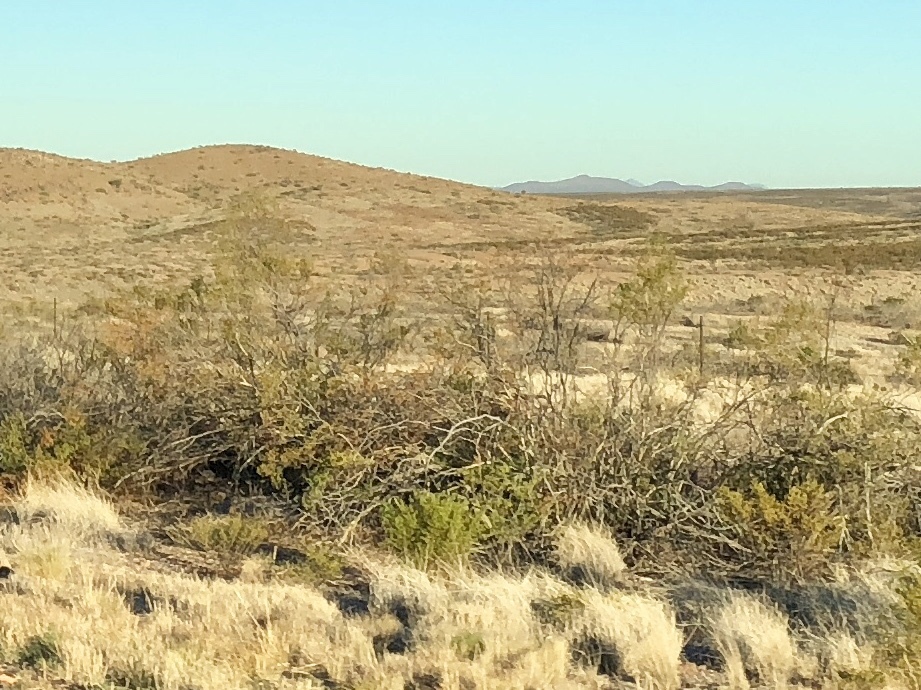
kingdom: Plantae
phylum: Tracheophyta
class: Magnoliopsida
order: Zygophyllales
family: Zygophyllaceae
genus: Larrea
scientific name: Larrea tridentata
